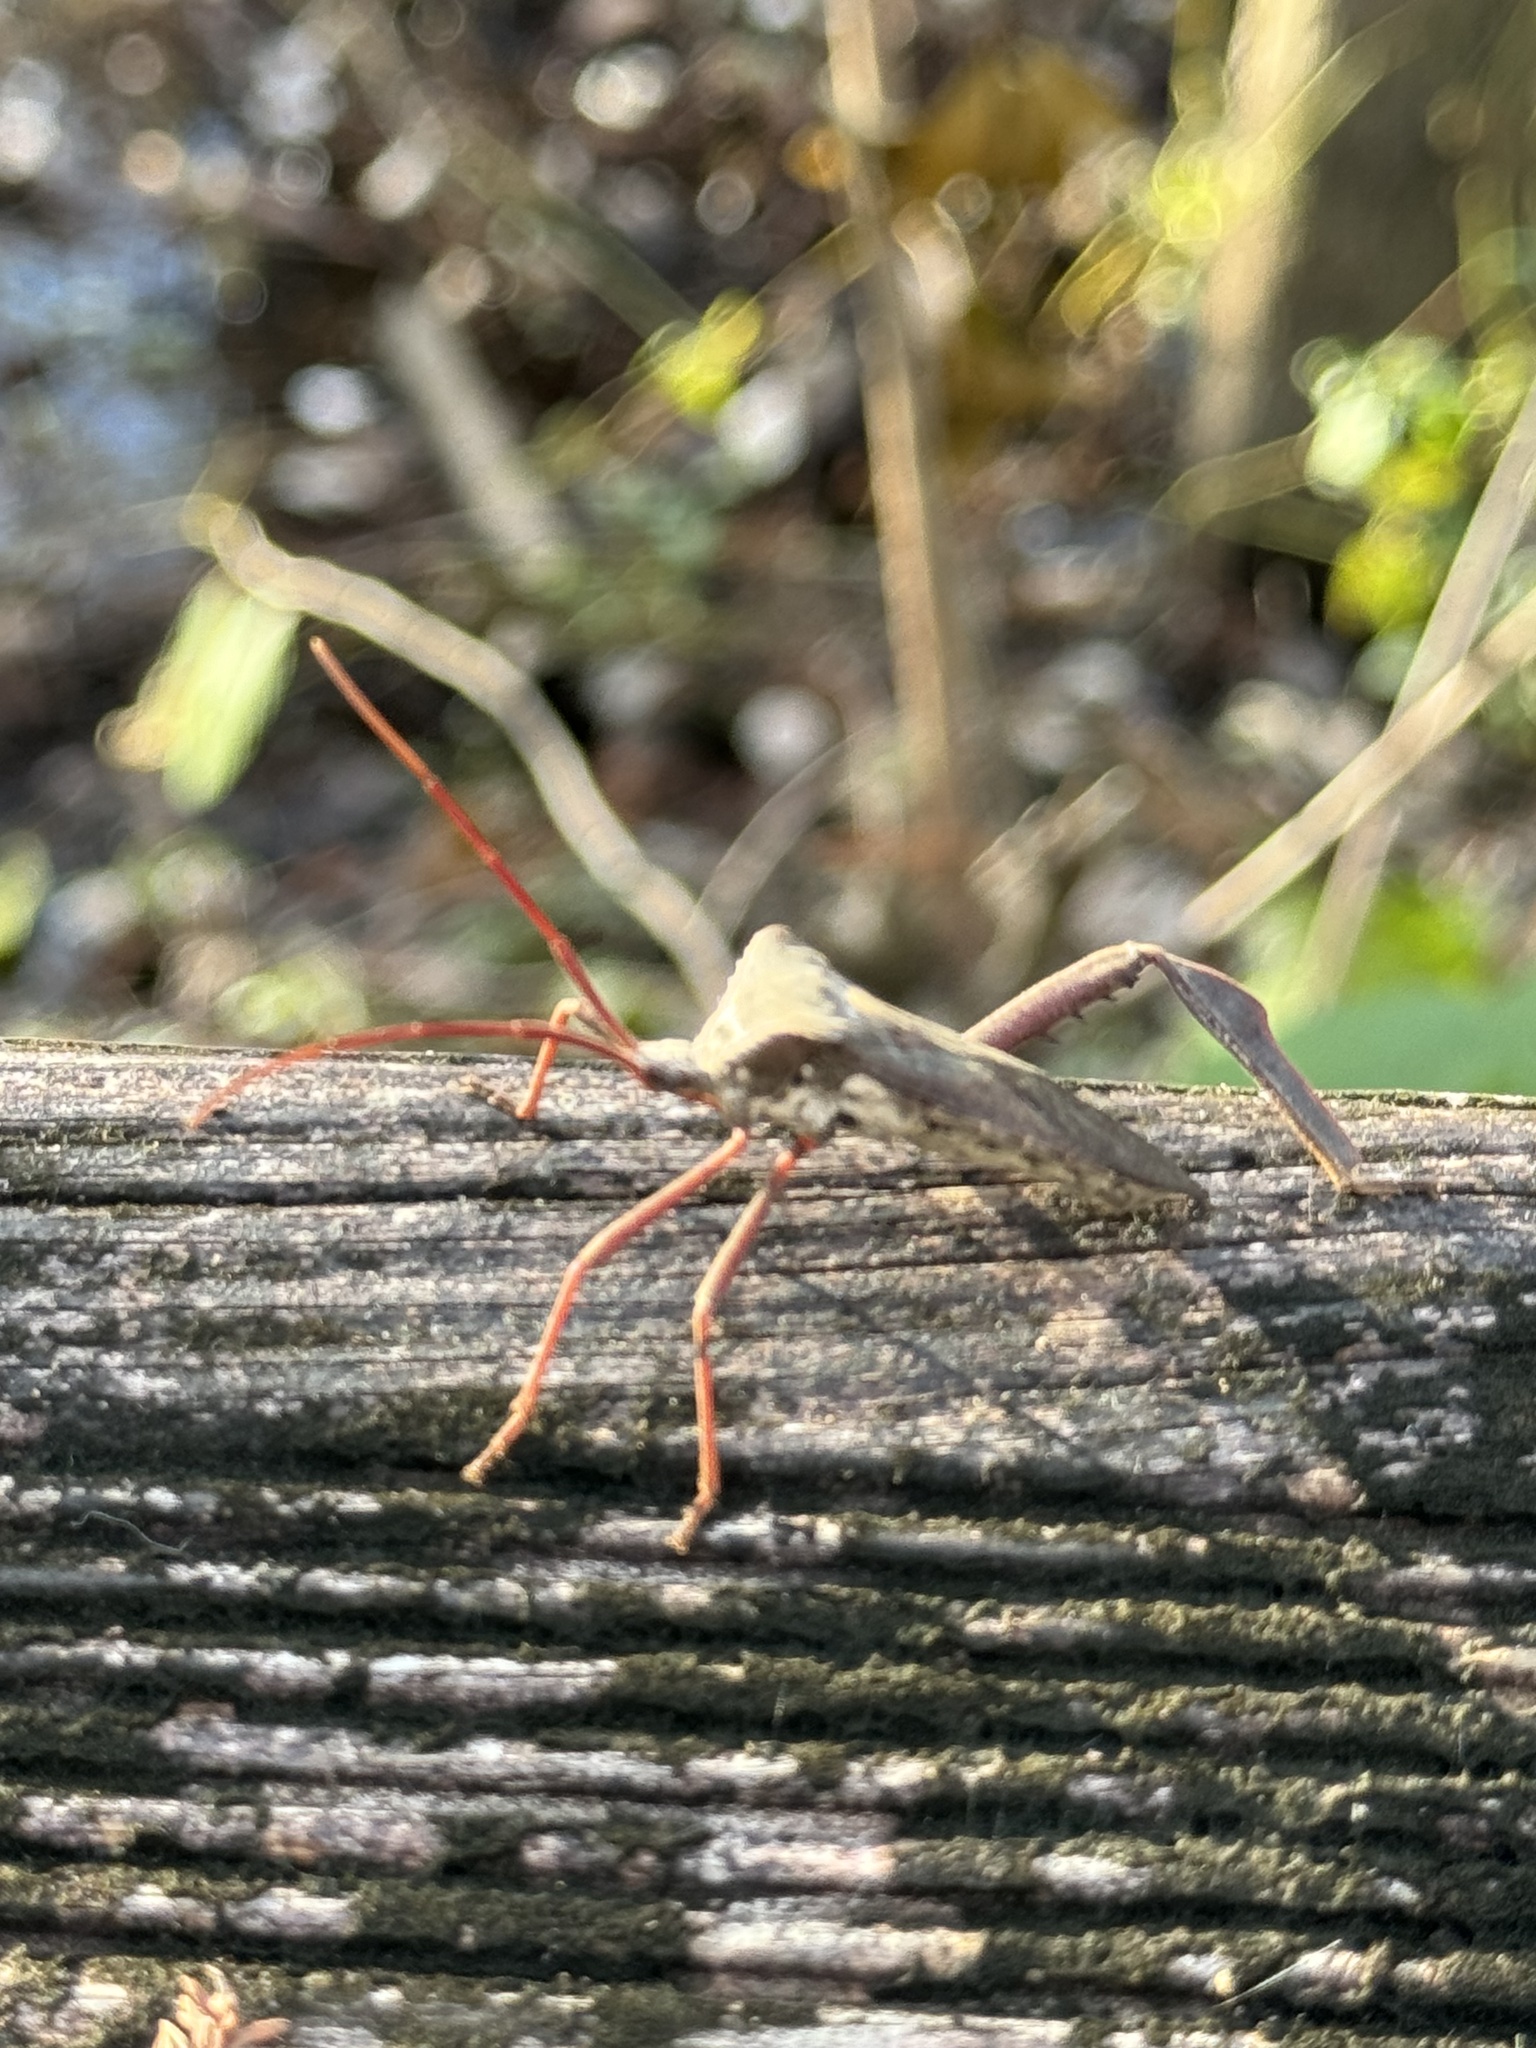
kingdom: Animalia
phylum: Arthropoda
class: Insecta
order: Hemiptera
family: Coreidae
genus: Acanthocephala
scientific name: Acanthocephala declivis
